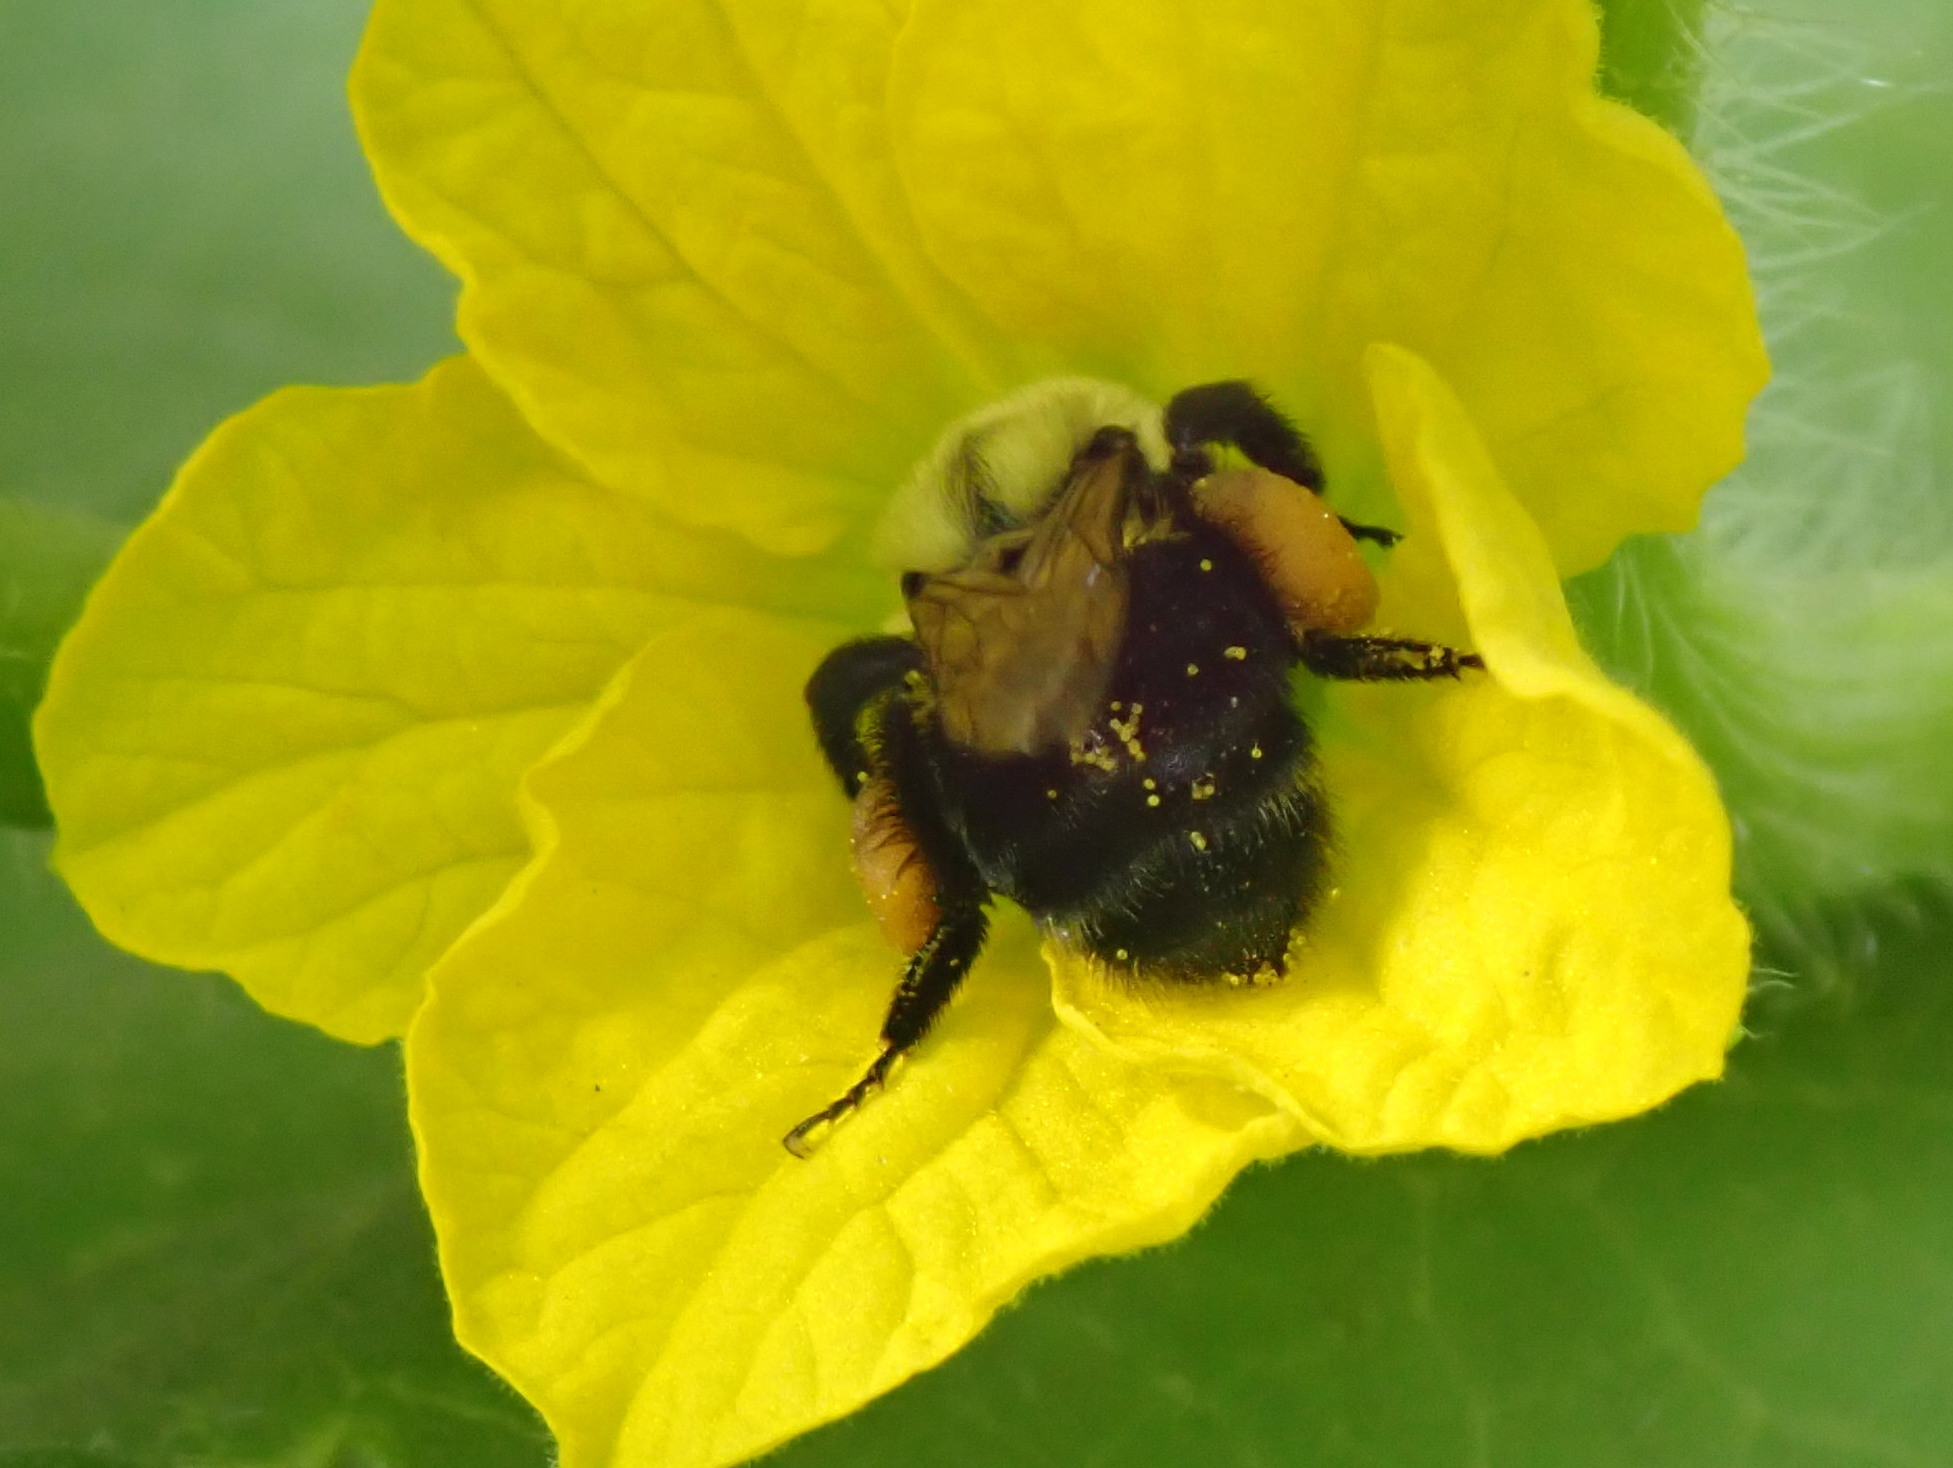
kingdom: Animalia
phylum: Arthropoda
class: Insecta
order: Hymenoptera
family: Apidae
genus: Bombus
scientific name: Bombus impatiens
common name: Common eastern bumble bee
